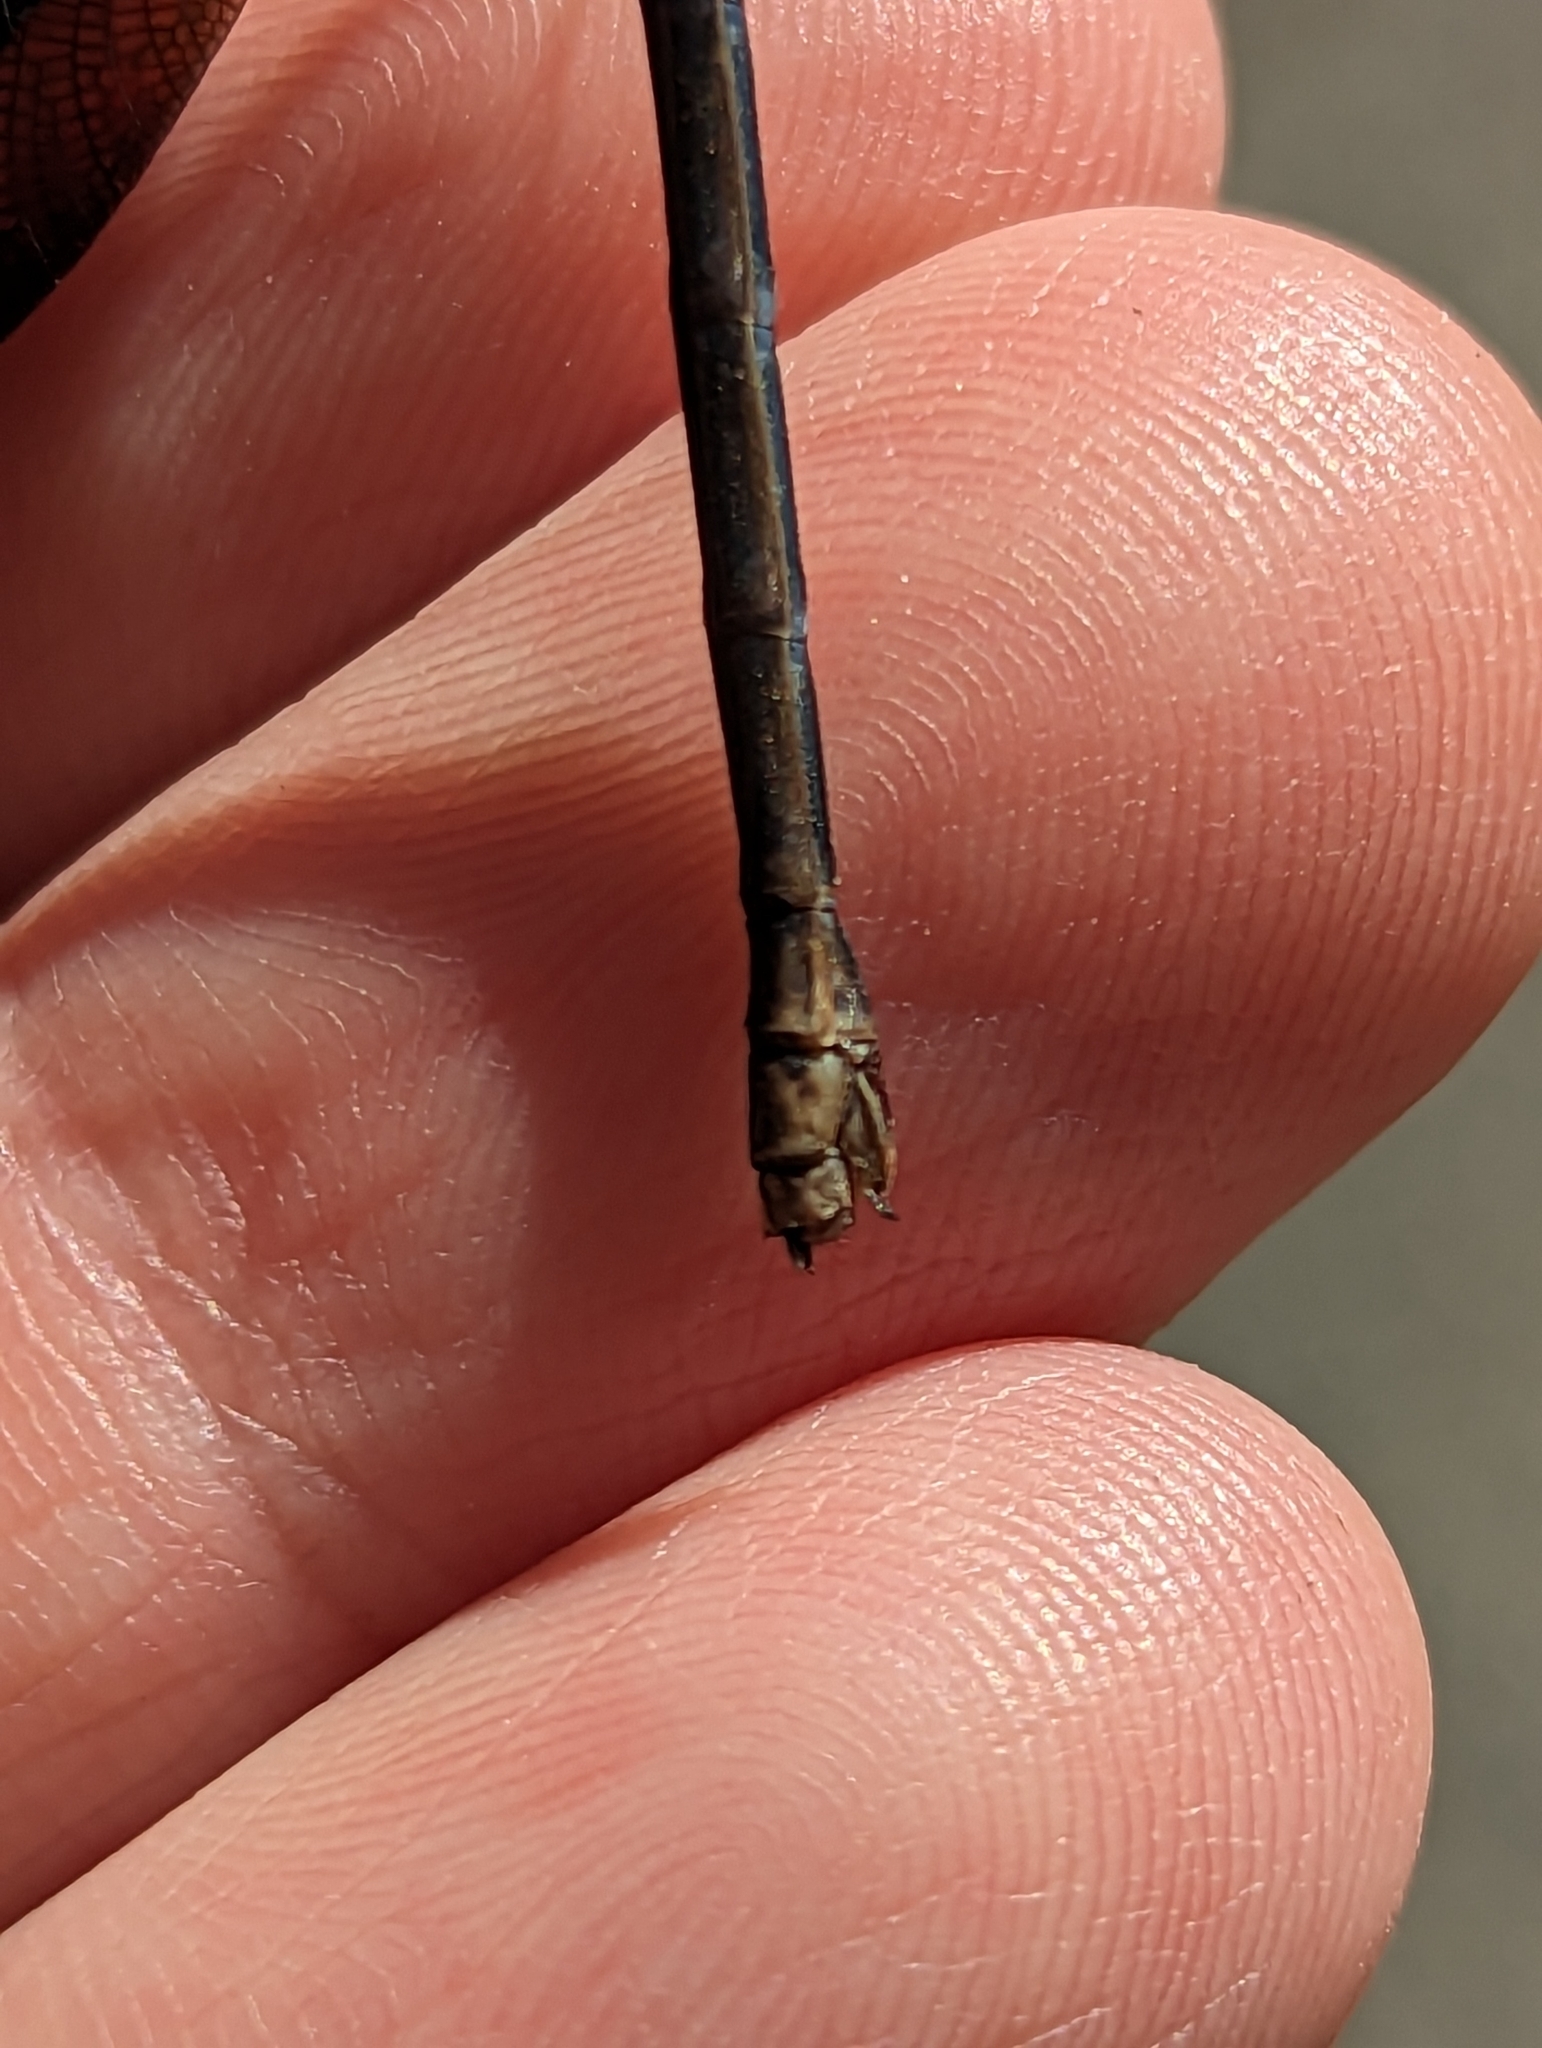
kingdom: Animalia
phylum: Arthropoda
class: Insecta
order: Odonata
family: Calopterygidae
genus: Calopteryx
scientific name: Calopteryx maculata
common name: Ebony jewelwing
